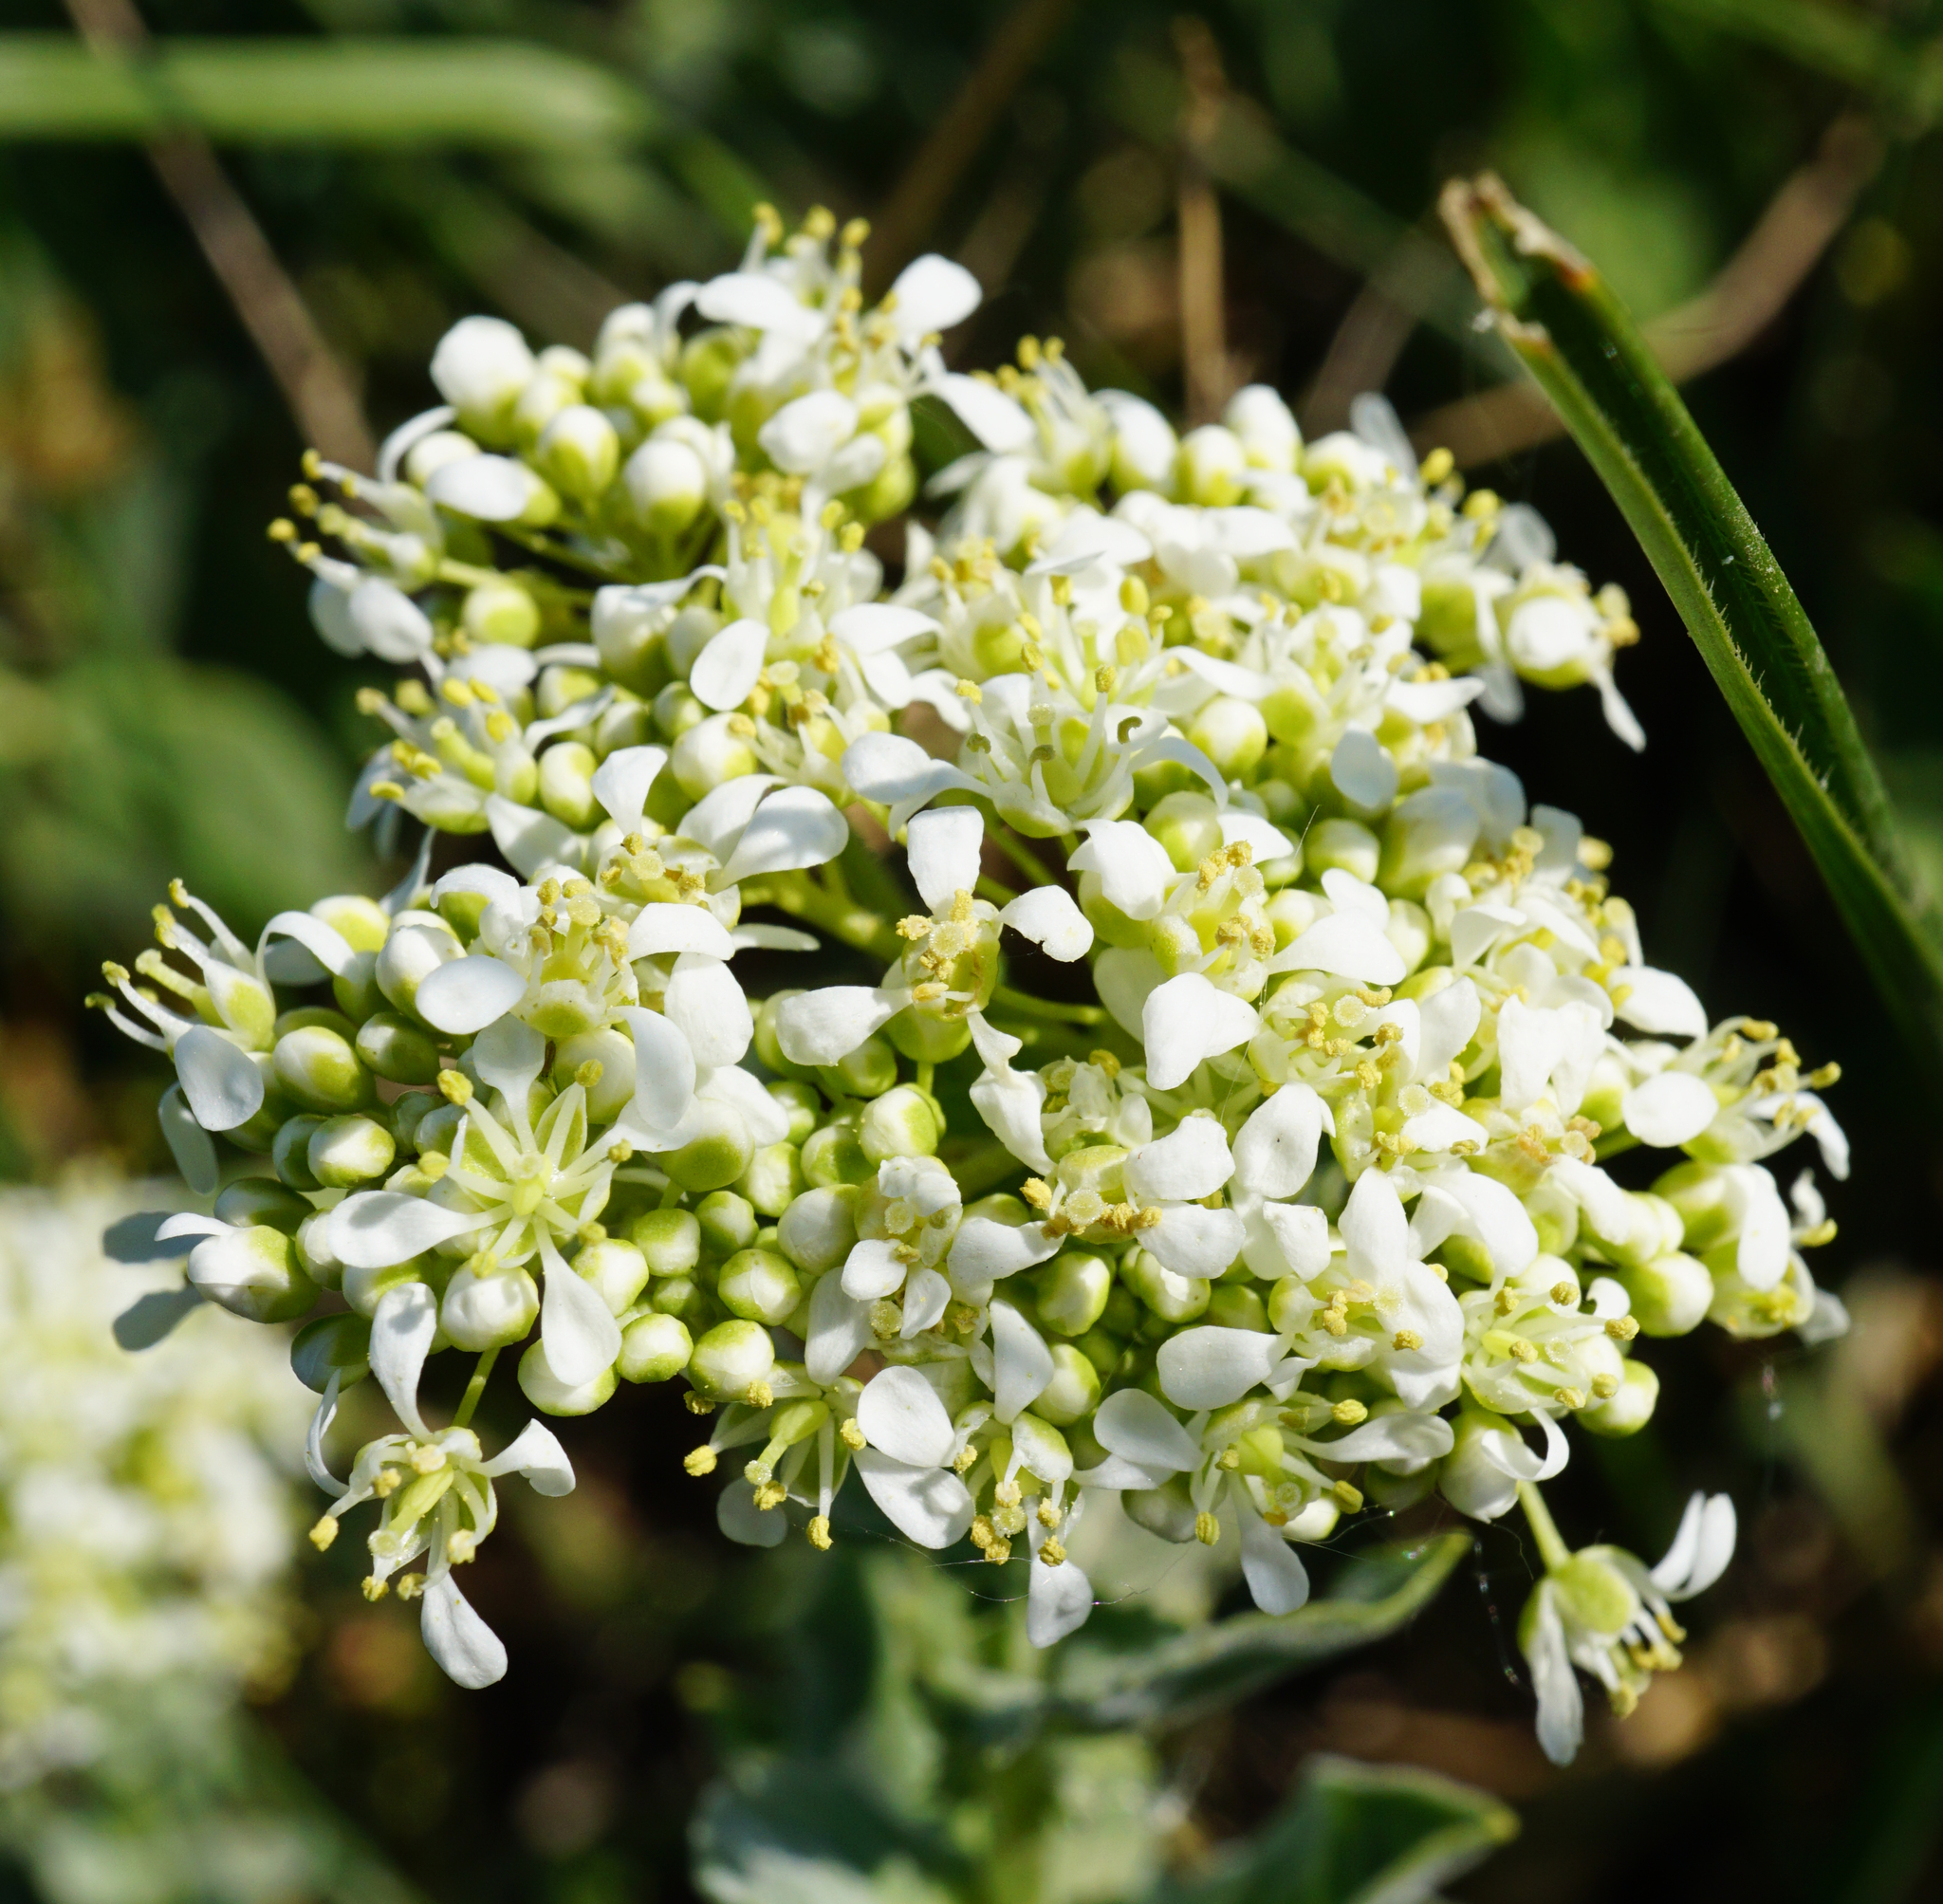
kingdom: Plantae
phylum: Tracheophyta
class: Magnoliopsida
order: Brassicales
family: Brassicaceae
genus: Lepidium
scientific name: Lepidium draba
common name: Hoary cress
